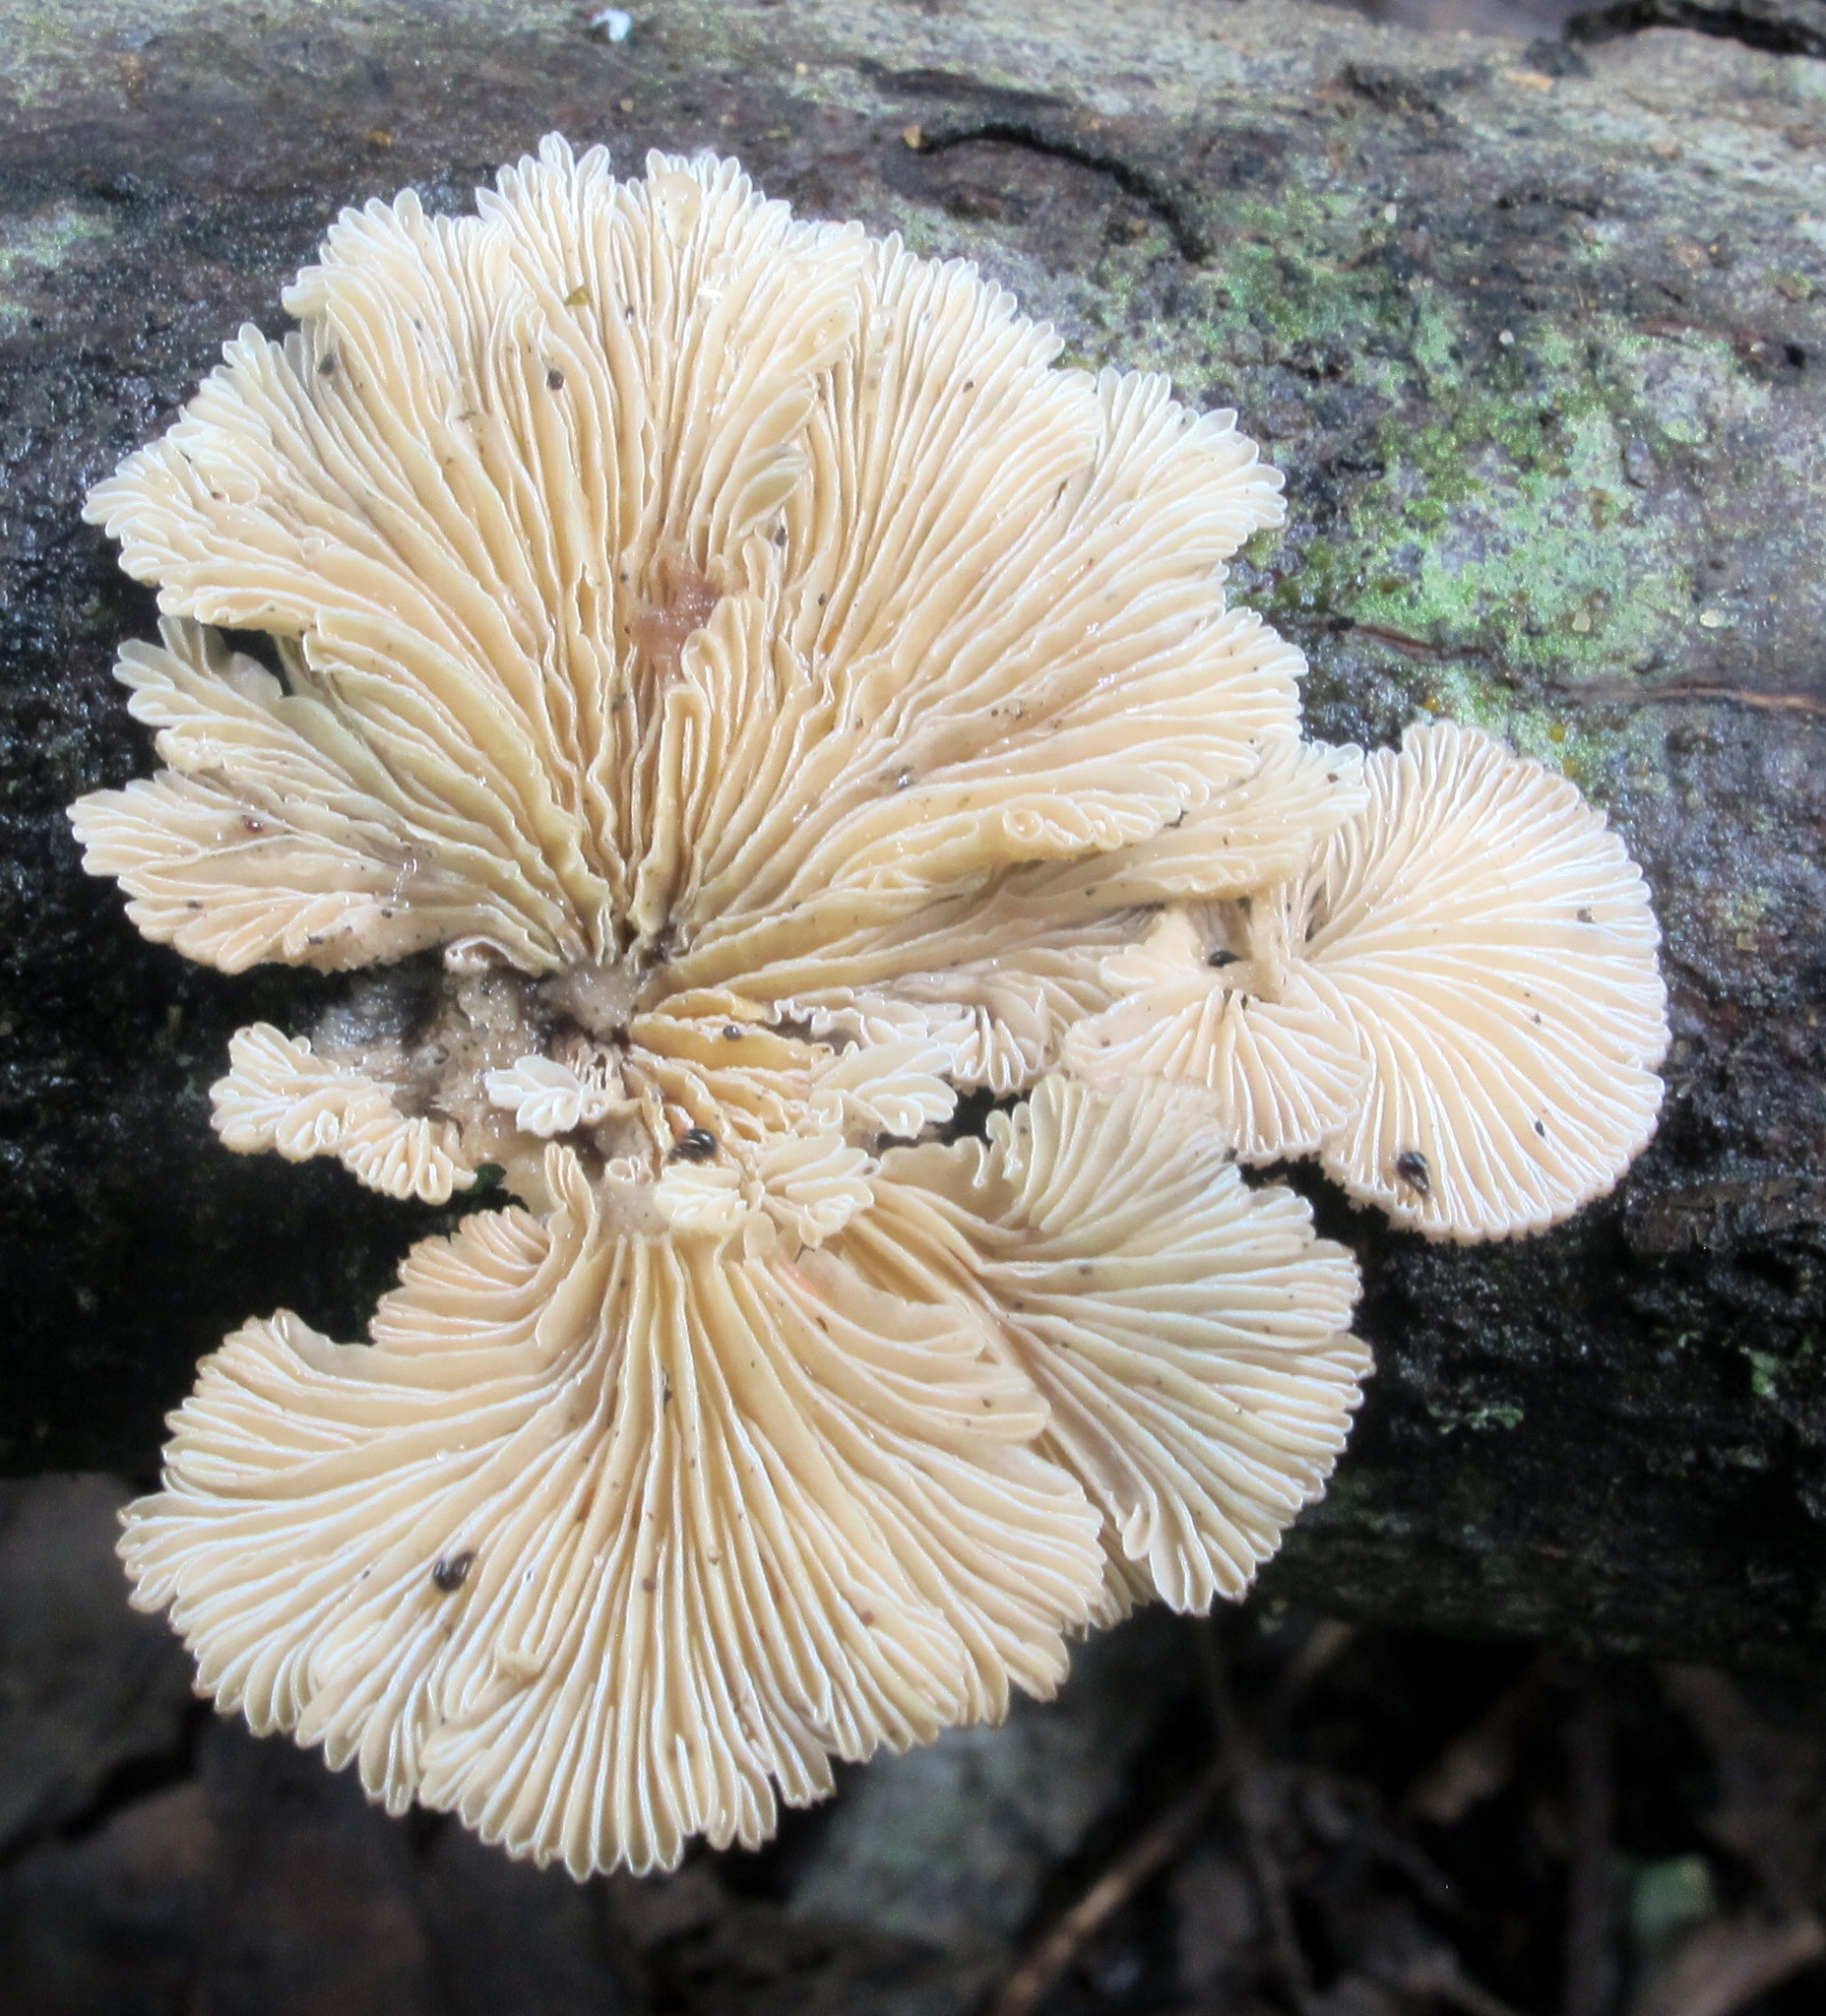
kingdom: Fungi
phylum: Basidiomycota
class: Agaricomycetes
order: Agaricales
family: Schizophyllaceae
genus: Schizophyllum
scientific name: Schizophyllum commune
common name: Common porecrust
